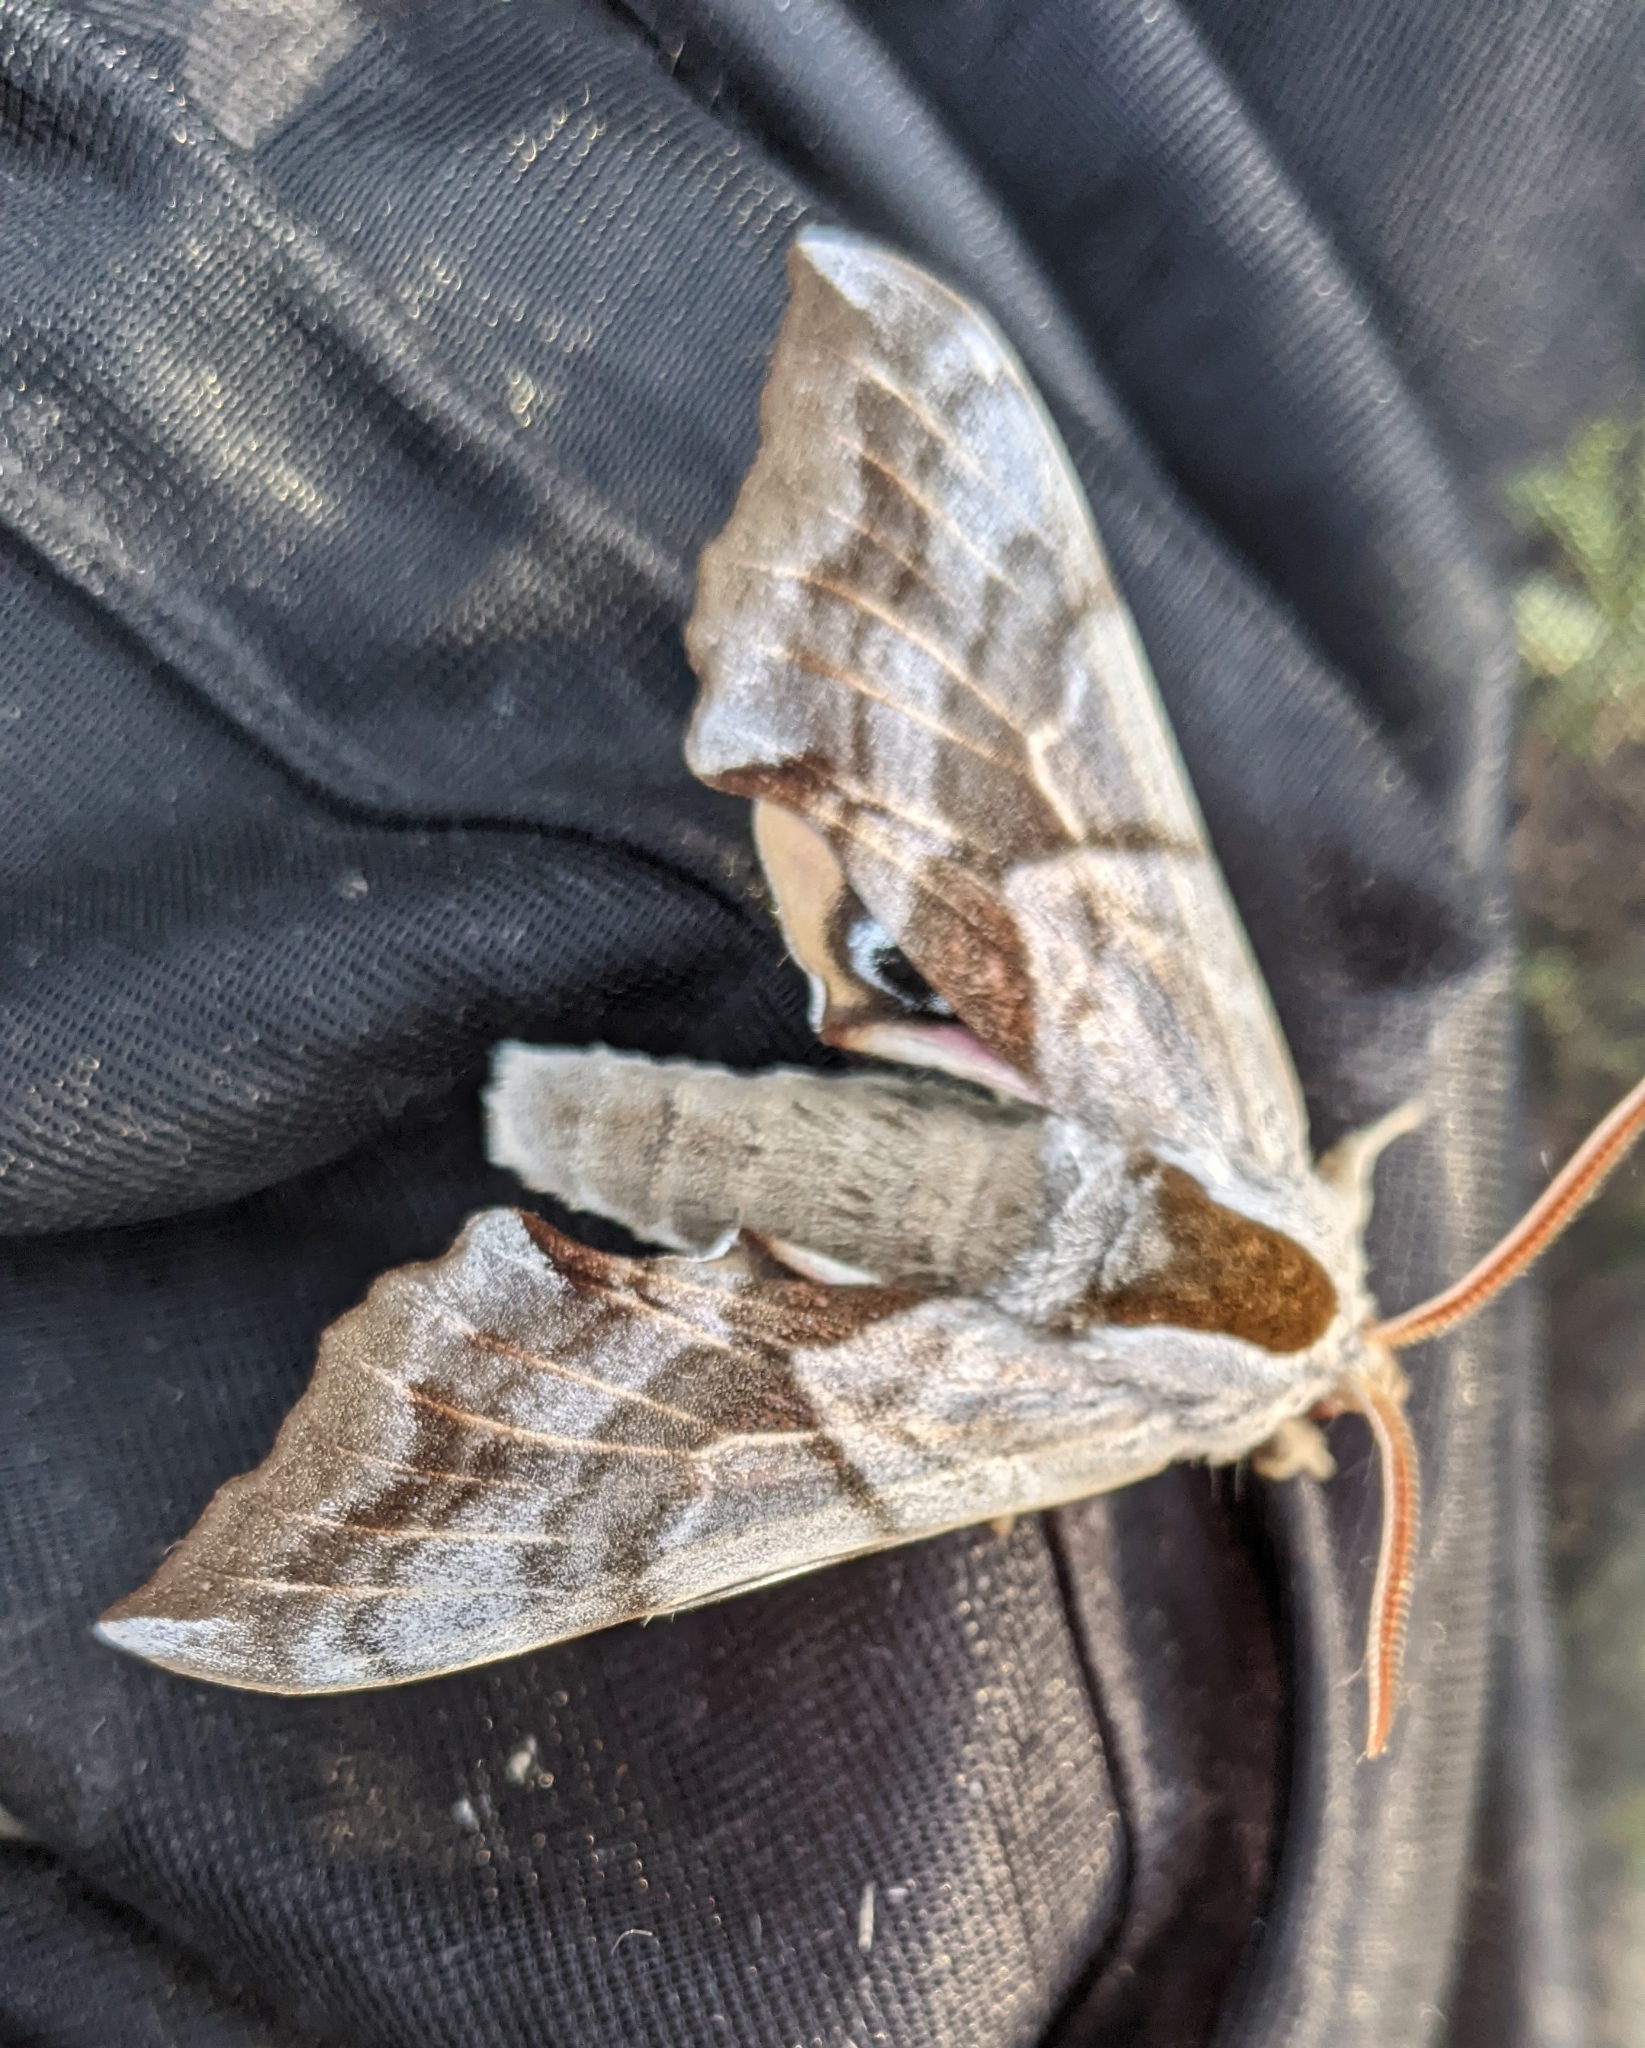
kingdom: Animalia
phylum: Arthropoda
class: Insecta
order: Lepidoptera
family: Sphingidae
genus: Smerinthus
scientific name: Smerinthus cerisyi
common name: Cerisy's sphinx moth
